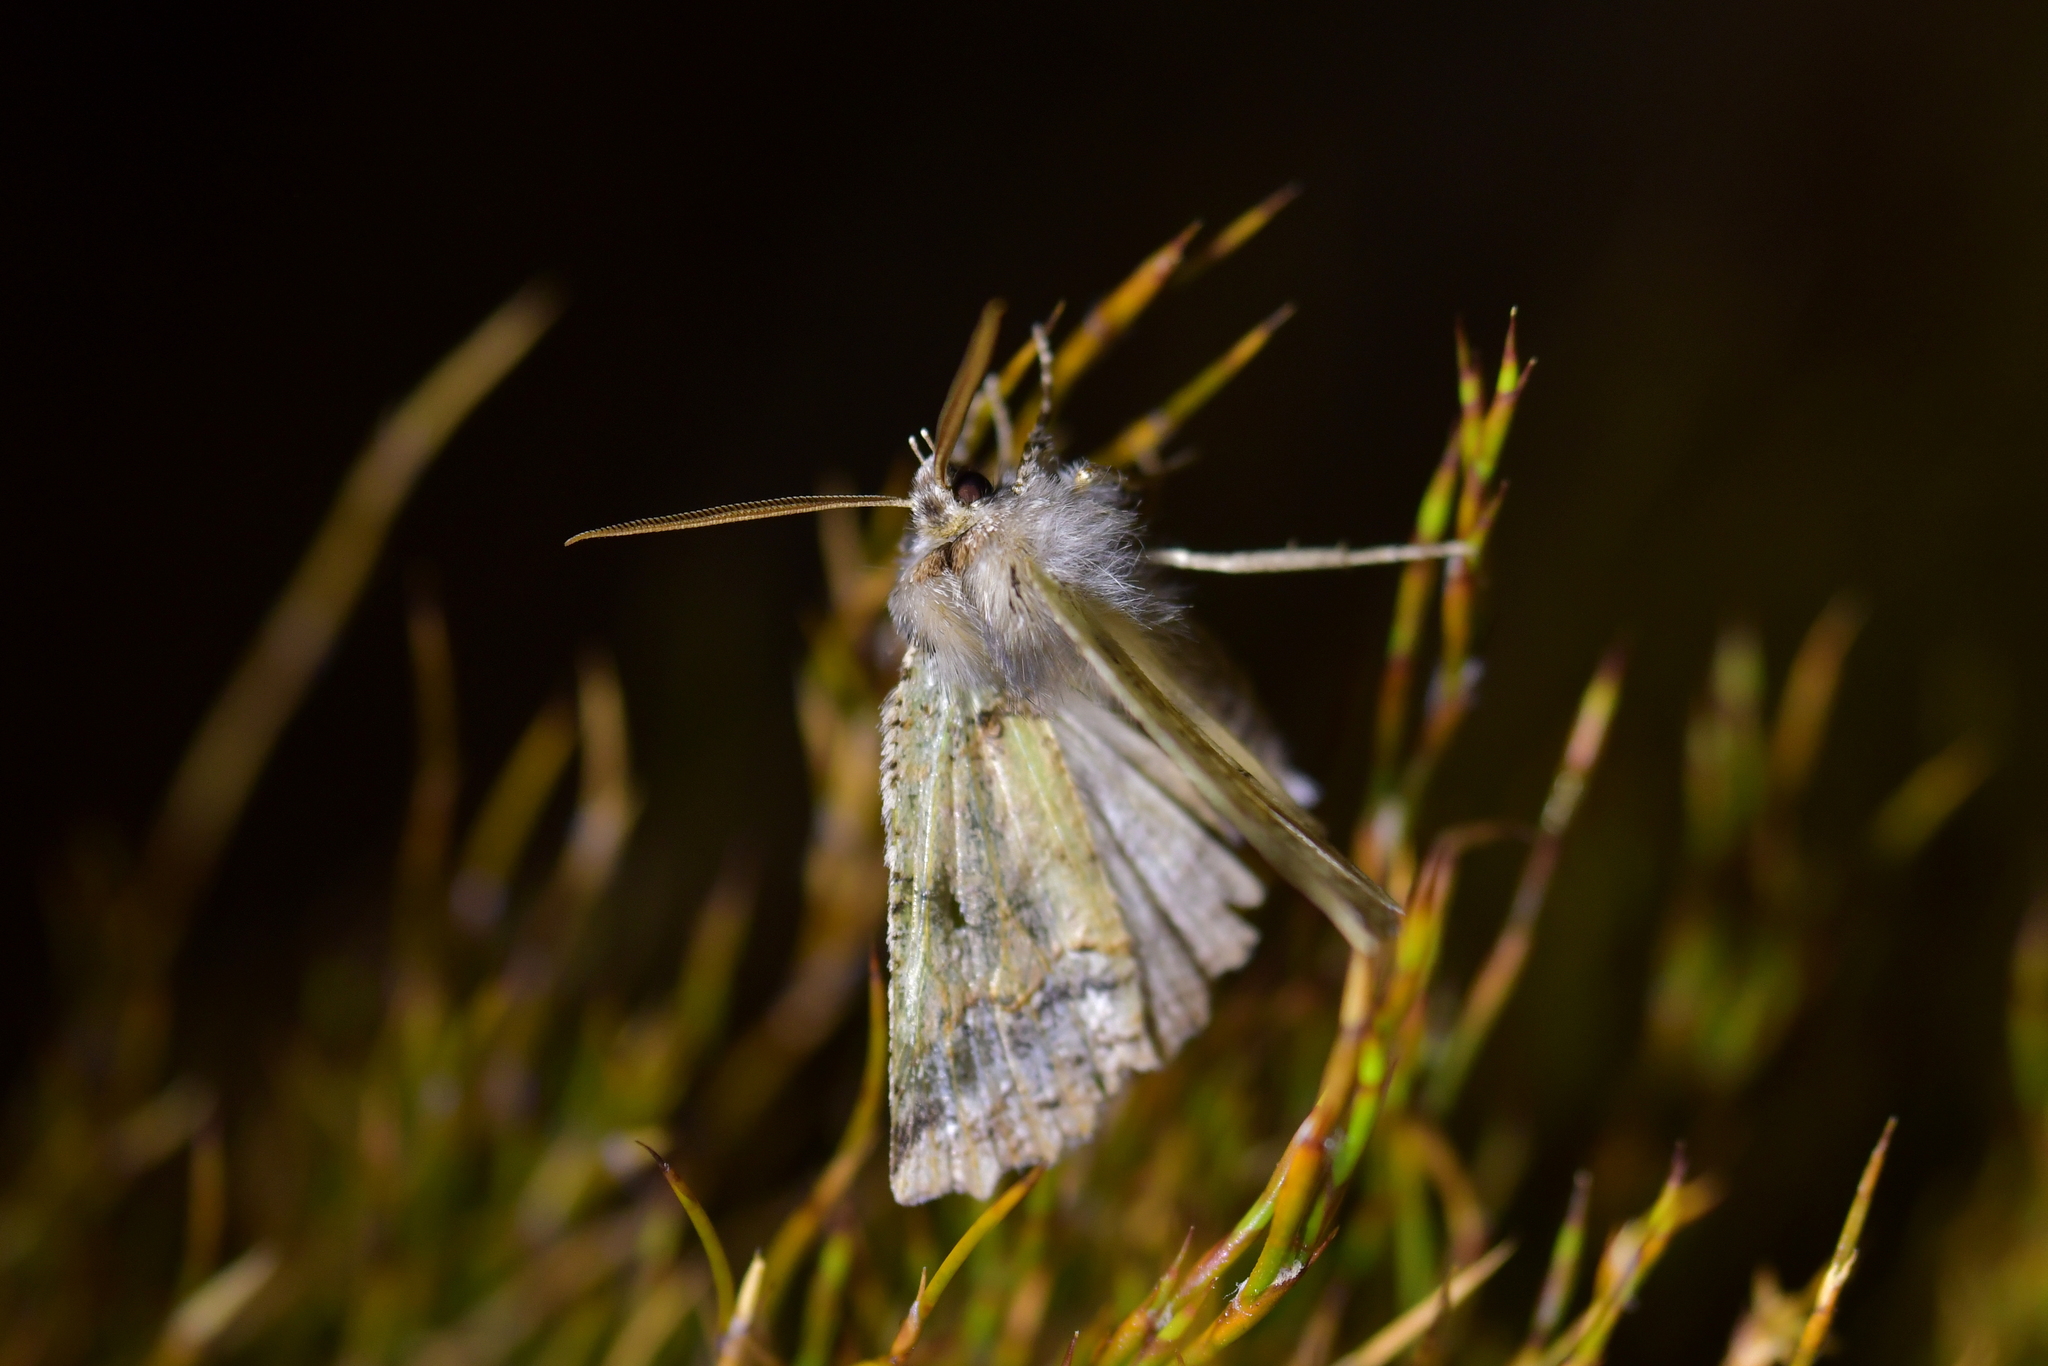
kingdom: Animalia
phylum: Arthropoda
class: Insecta
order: Lepidoptera
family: Geometridae
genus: Declana
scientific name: Declana floccosa
